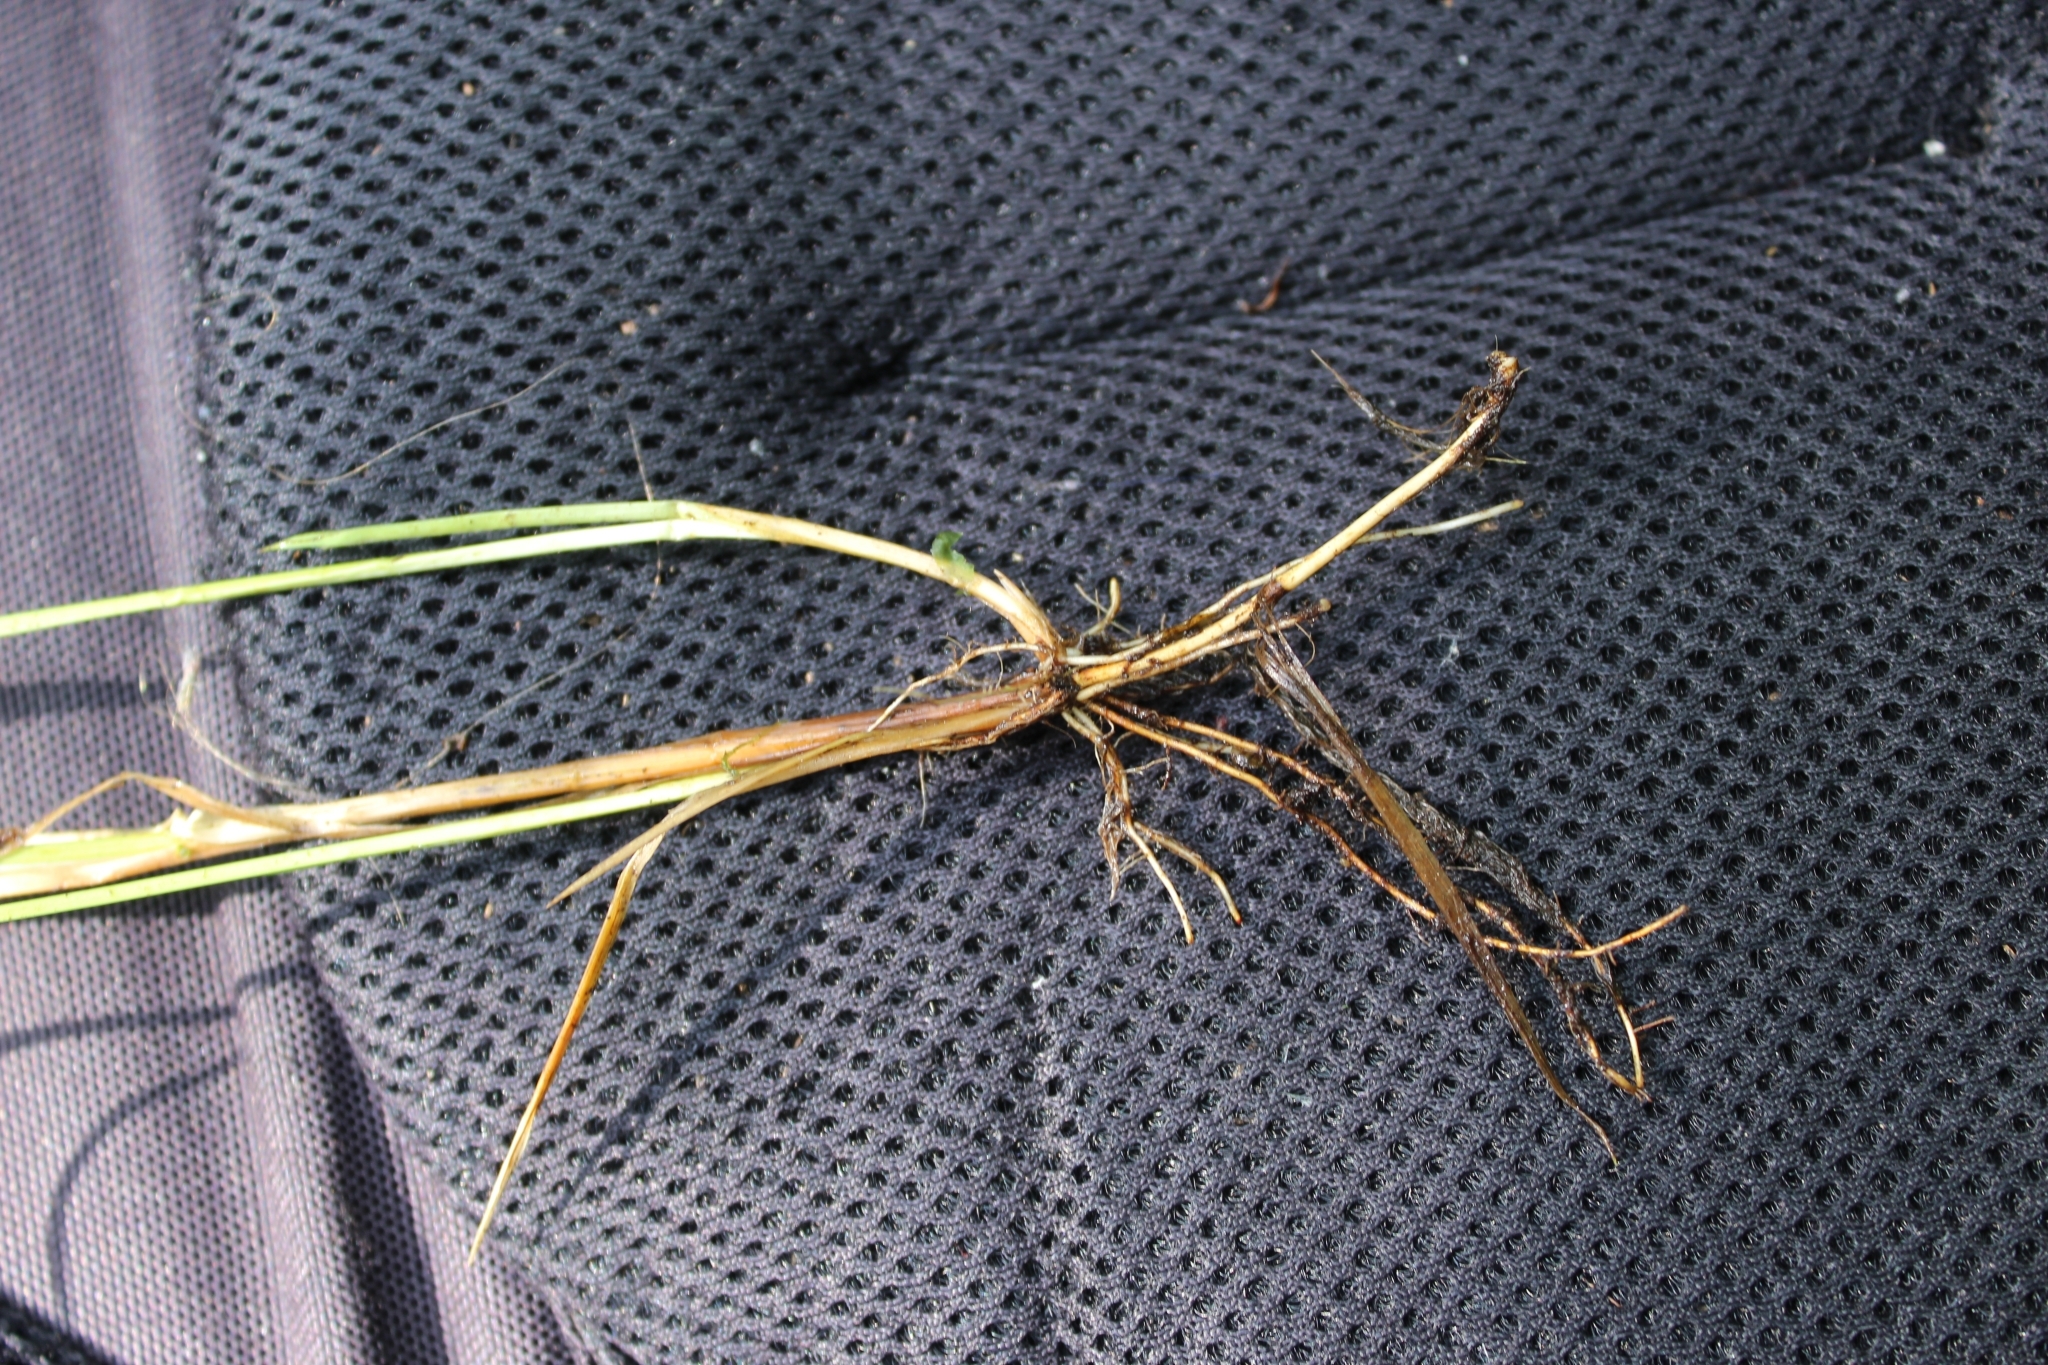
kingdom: Plantae
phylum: Tracheophyta
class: Liliopsida
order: Poales
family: Cyperaceae
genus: Carex
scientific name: Carex canescens
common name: White sedge
